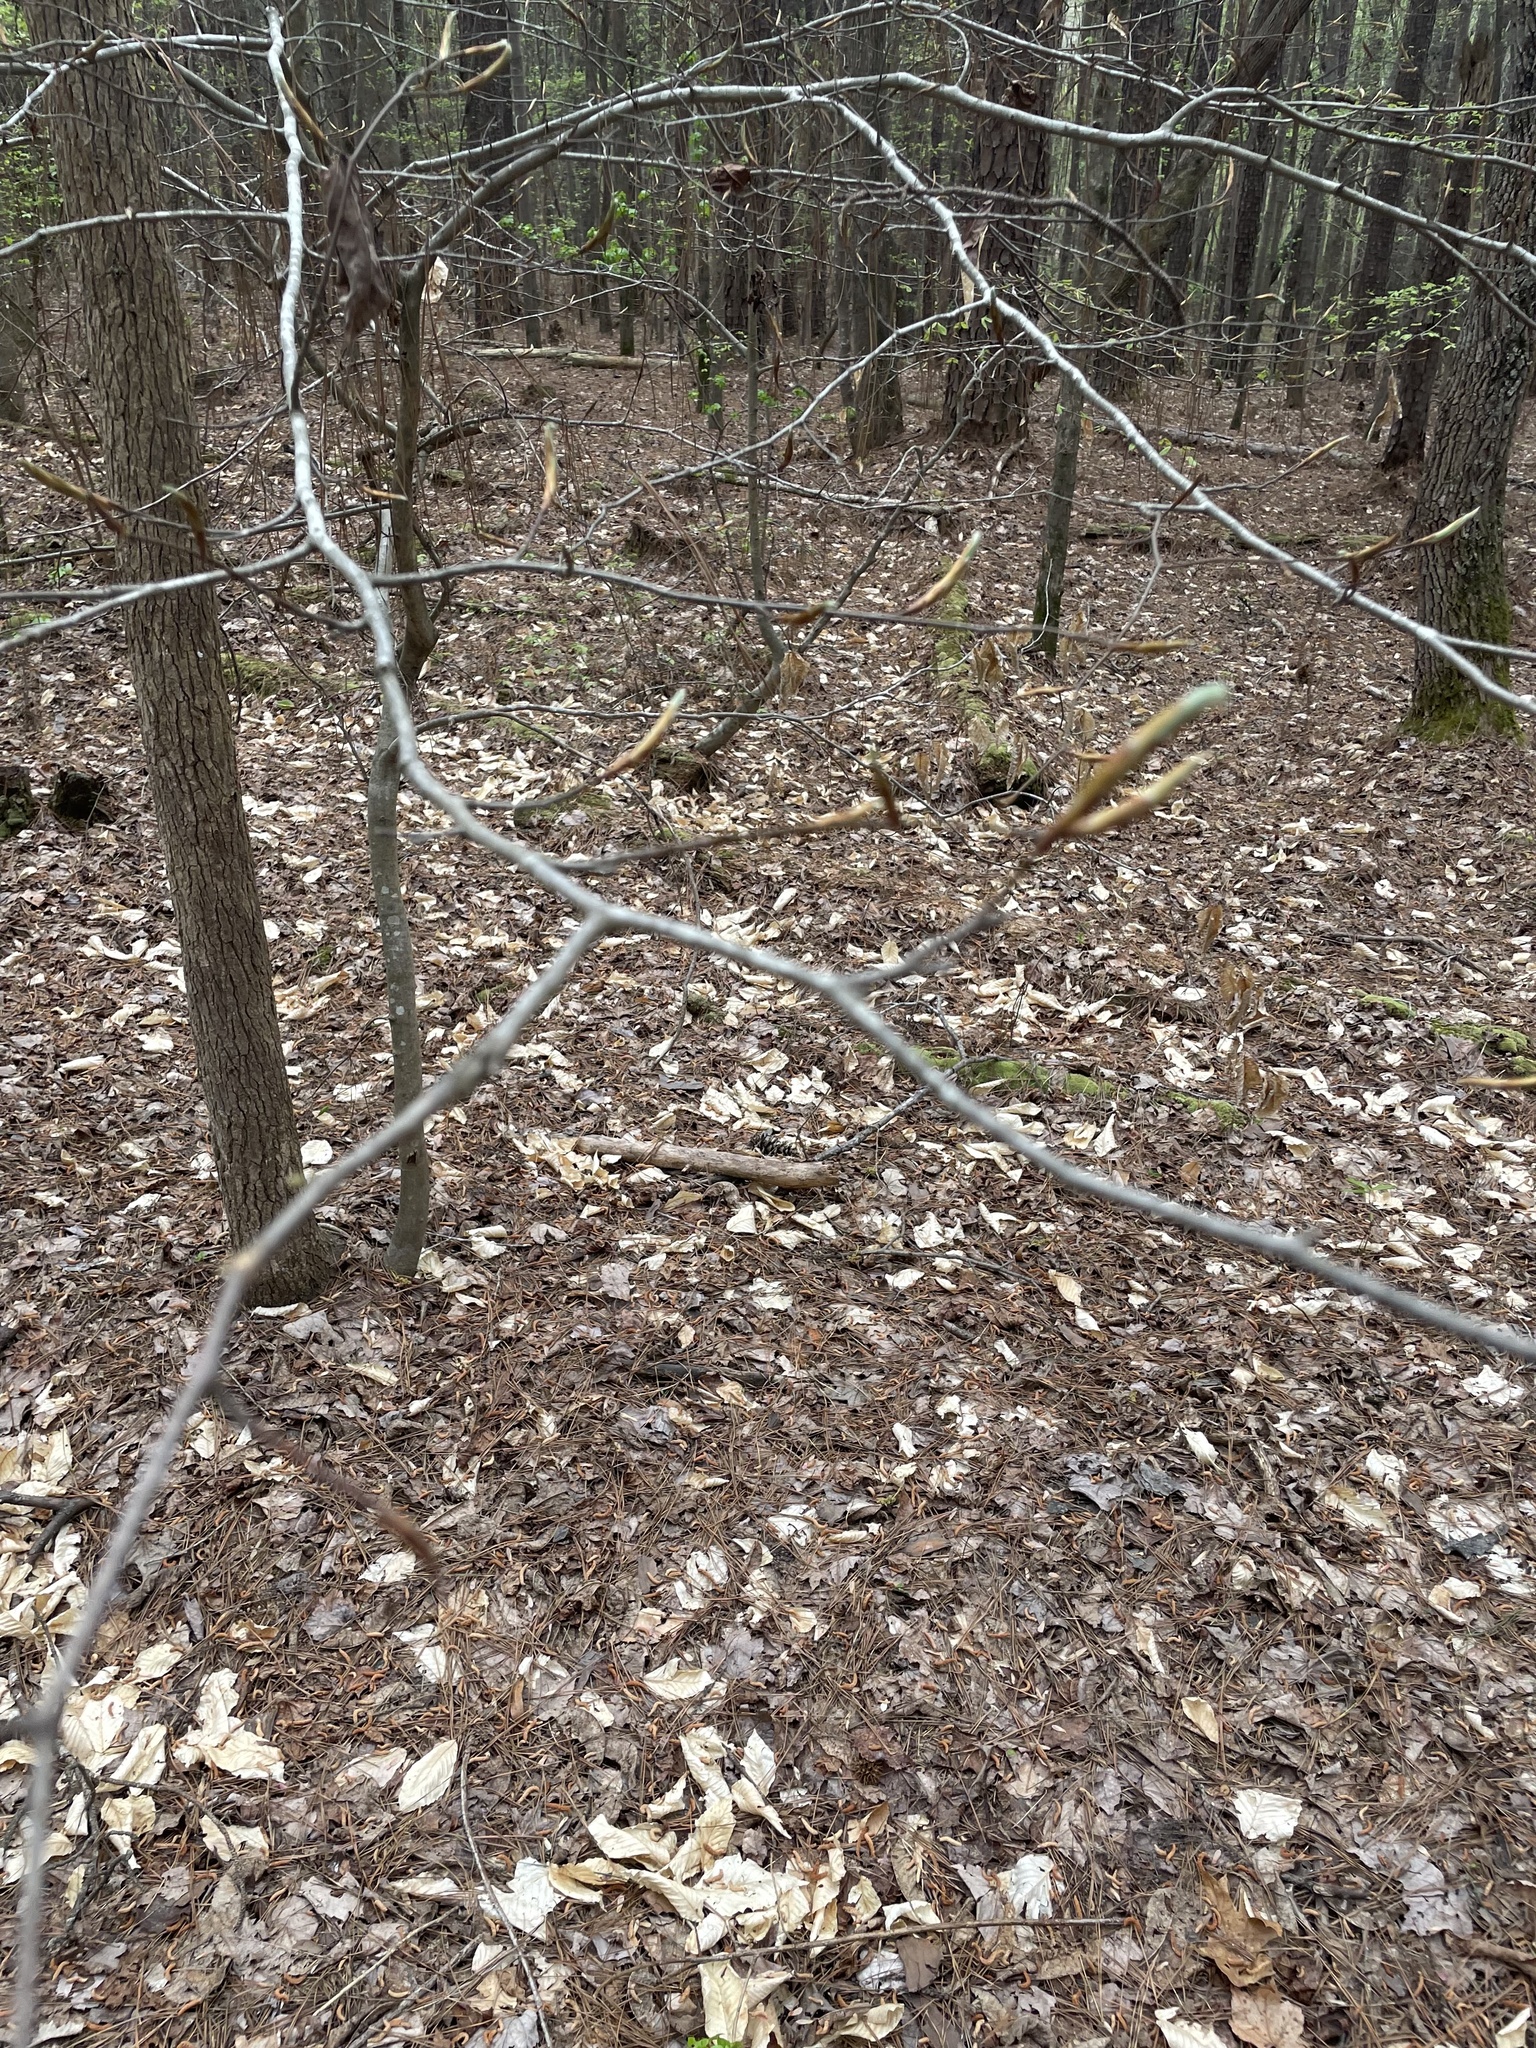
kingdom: Plantae
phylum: Tracheophyta
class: Magnoliopsida
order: Fagales
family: Fagaceae
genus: Fagus
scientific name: Fagus grandifolia
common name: American beech
